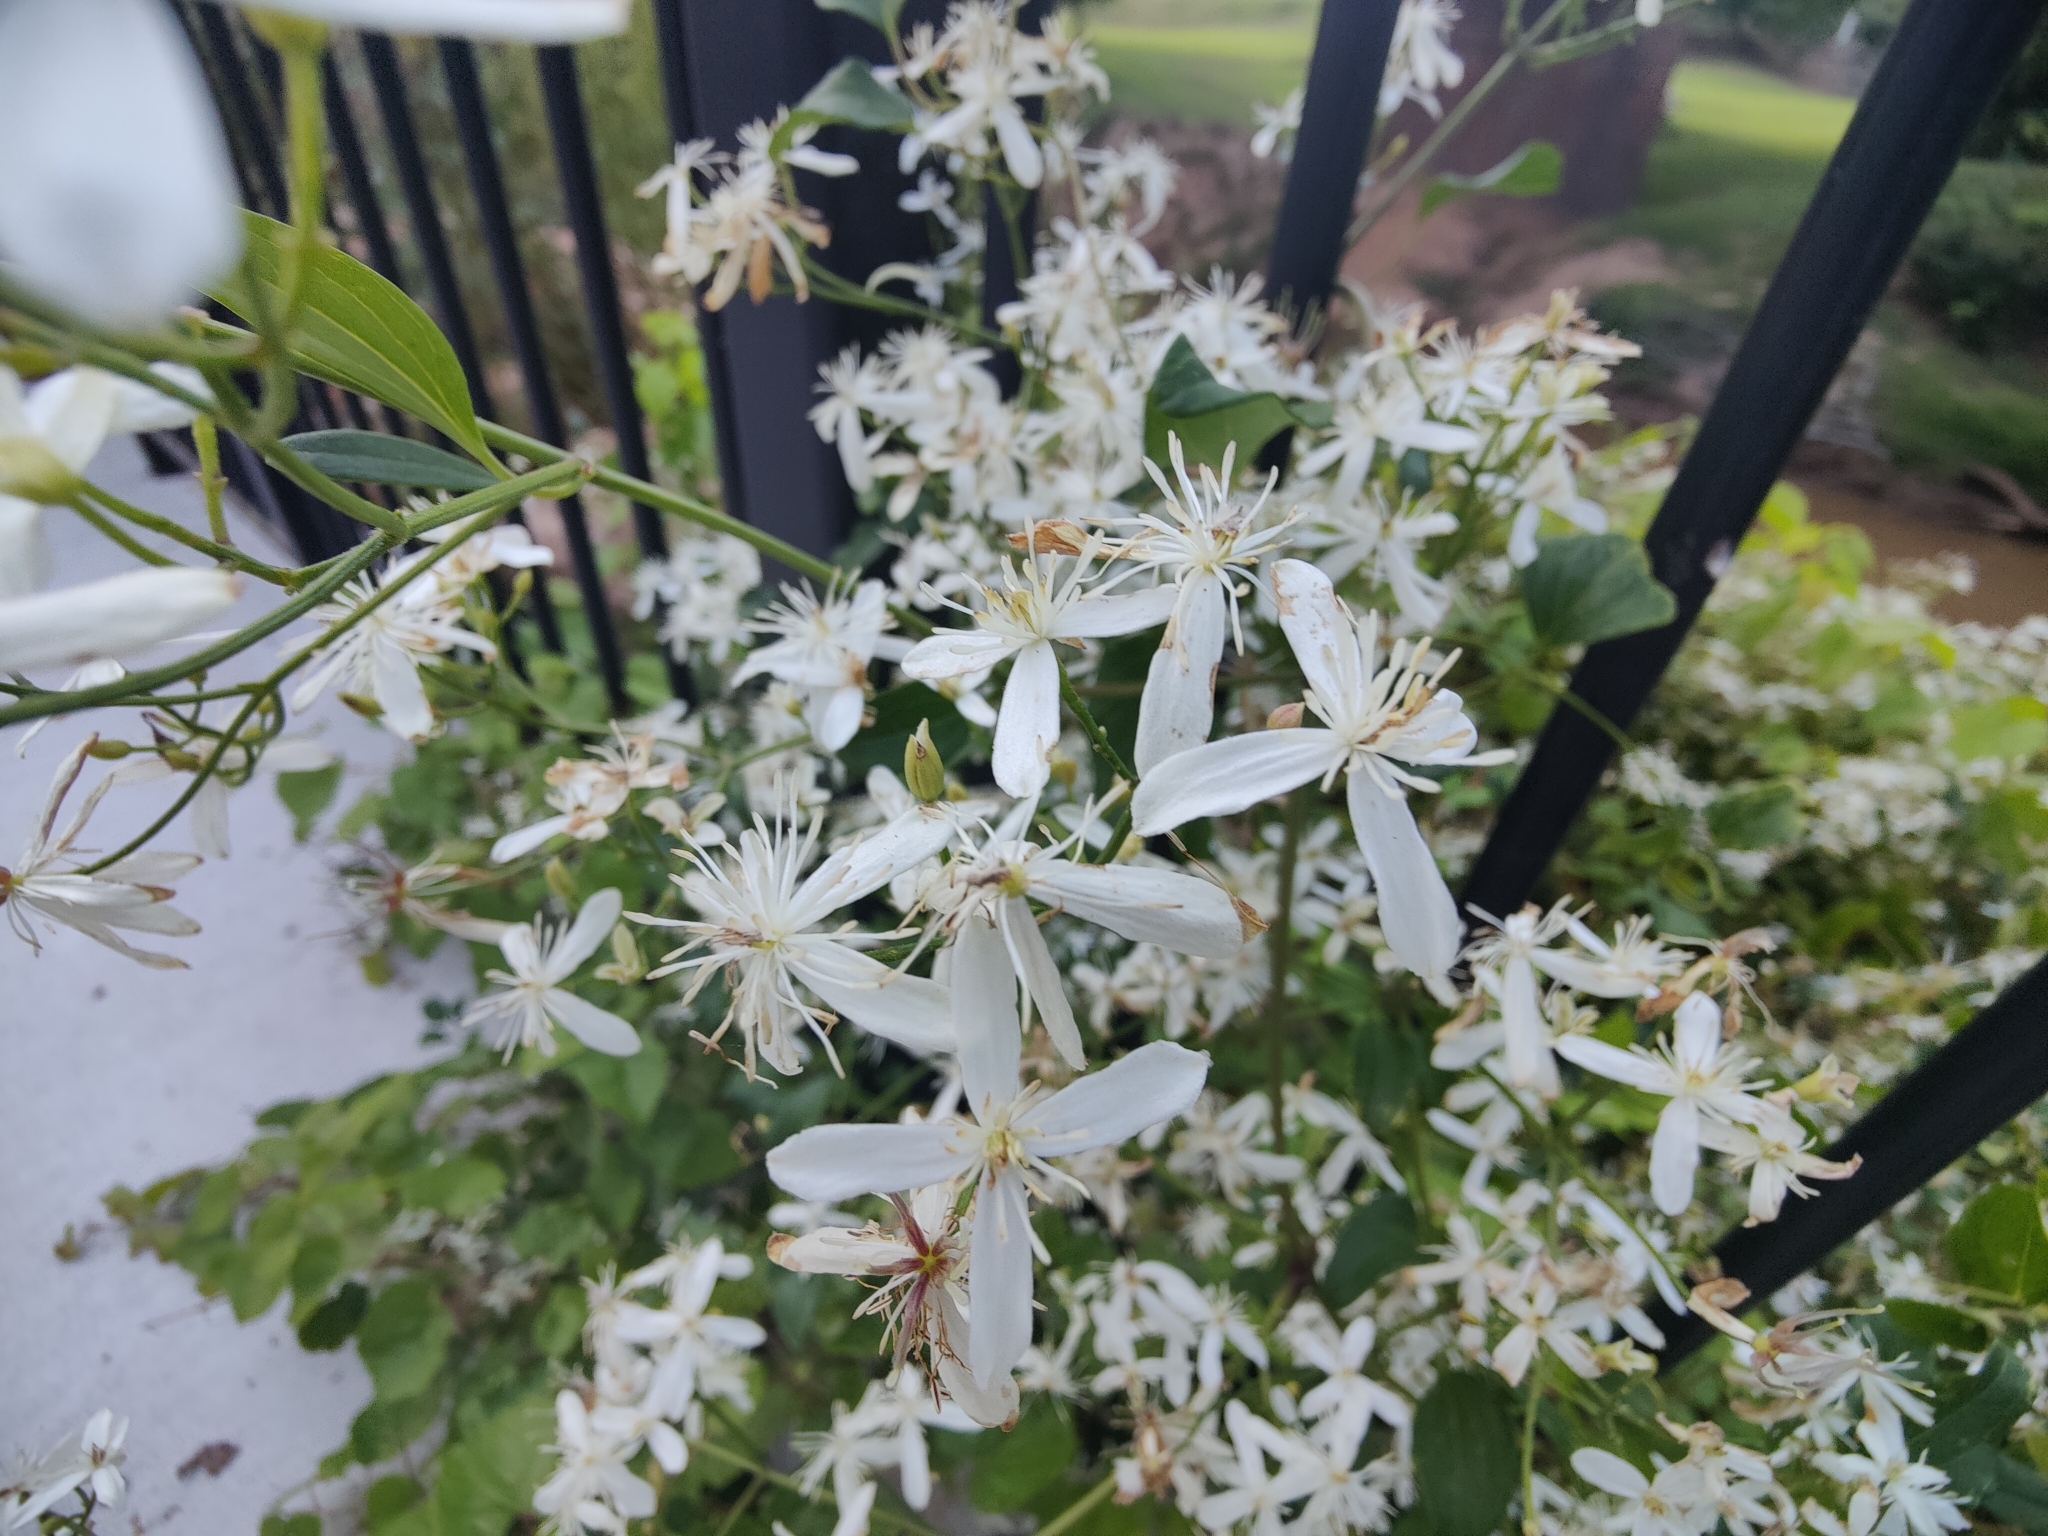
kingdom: Plantae
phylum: Tracheophyta
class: Magnoliopsida
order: Ranunculales
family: Ranunculaceae
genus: Clematis
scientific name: Clematis terniflora
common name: Sweet autumn clematis
